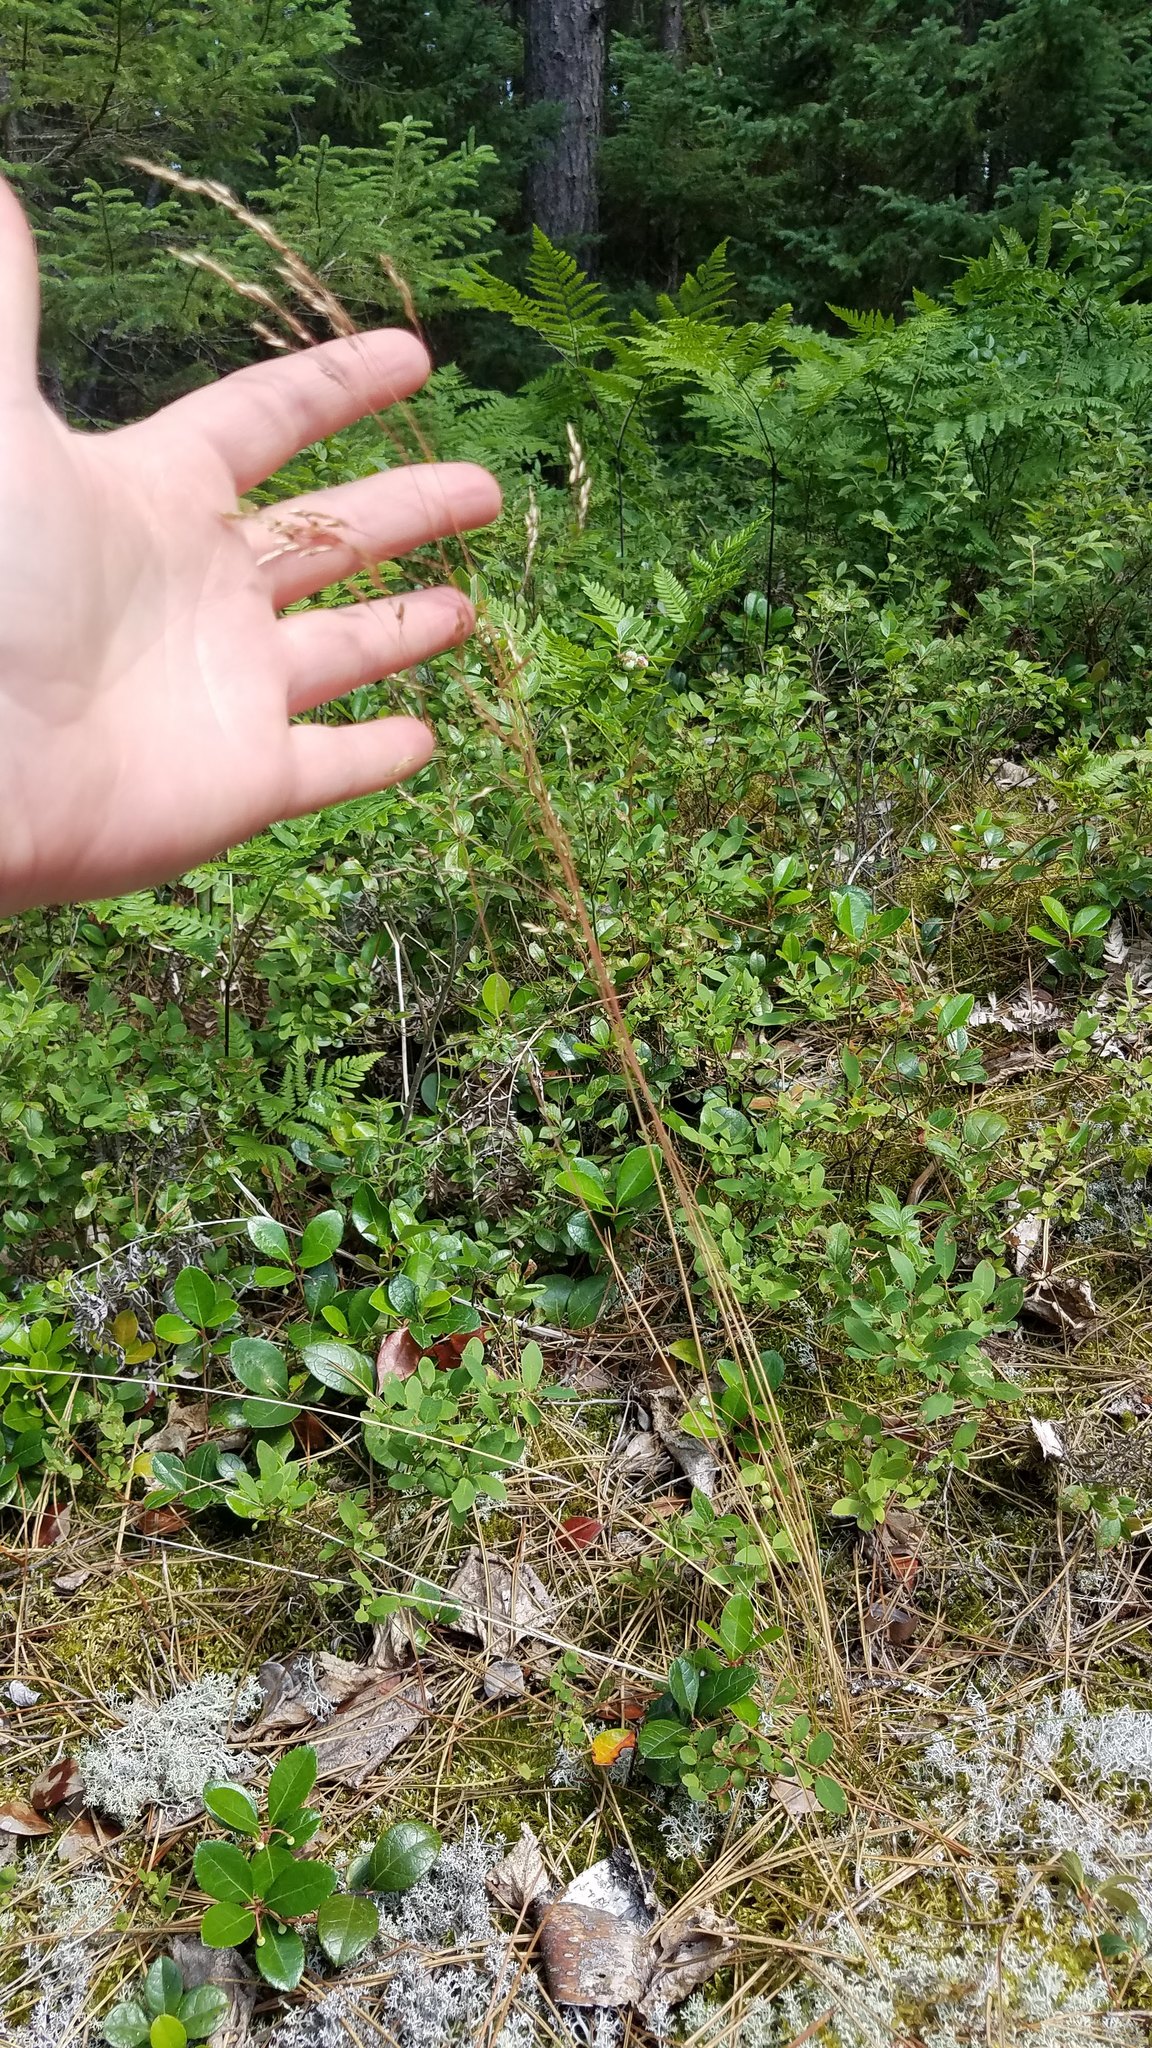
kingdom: Plantae
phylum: Tracheophyta
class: Liliopsida
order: Poales
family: Poaceae
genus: Deschampsia
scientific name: Deschampsia cespitosa
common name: Tufted hair-grass
